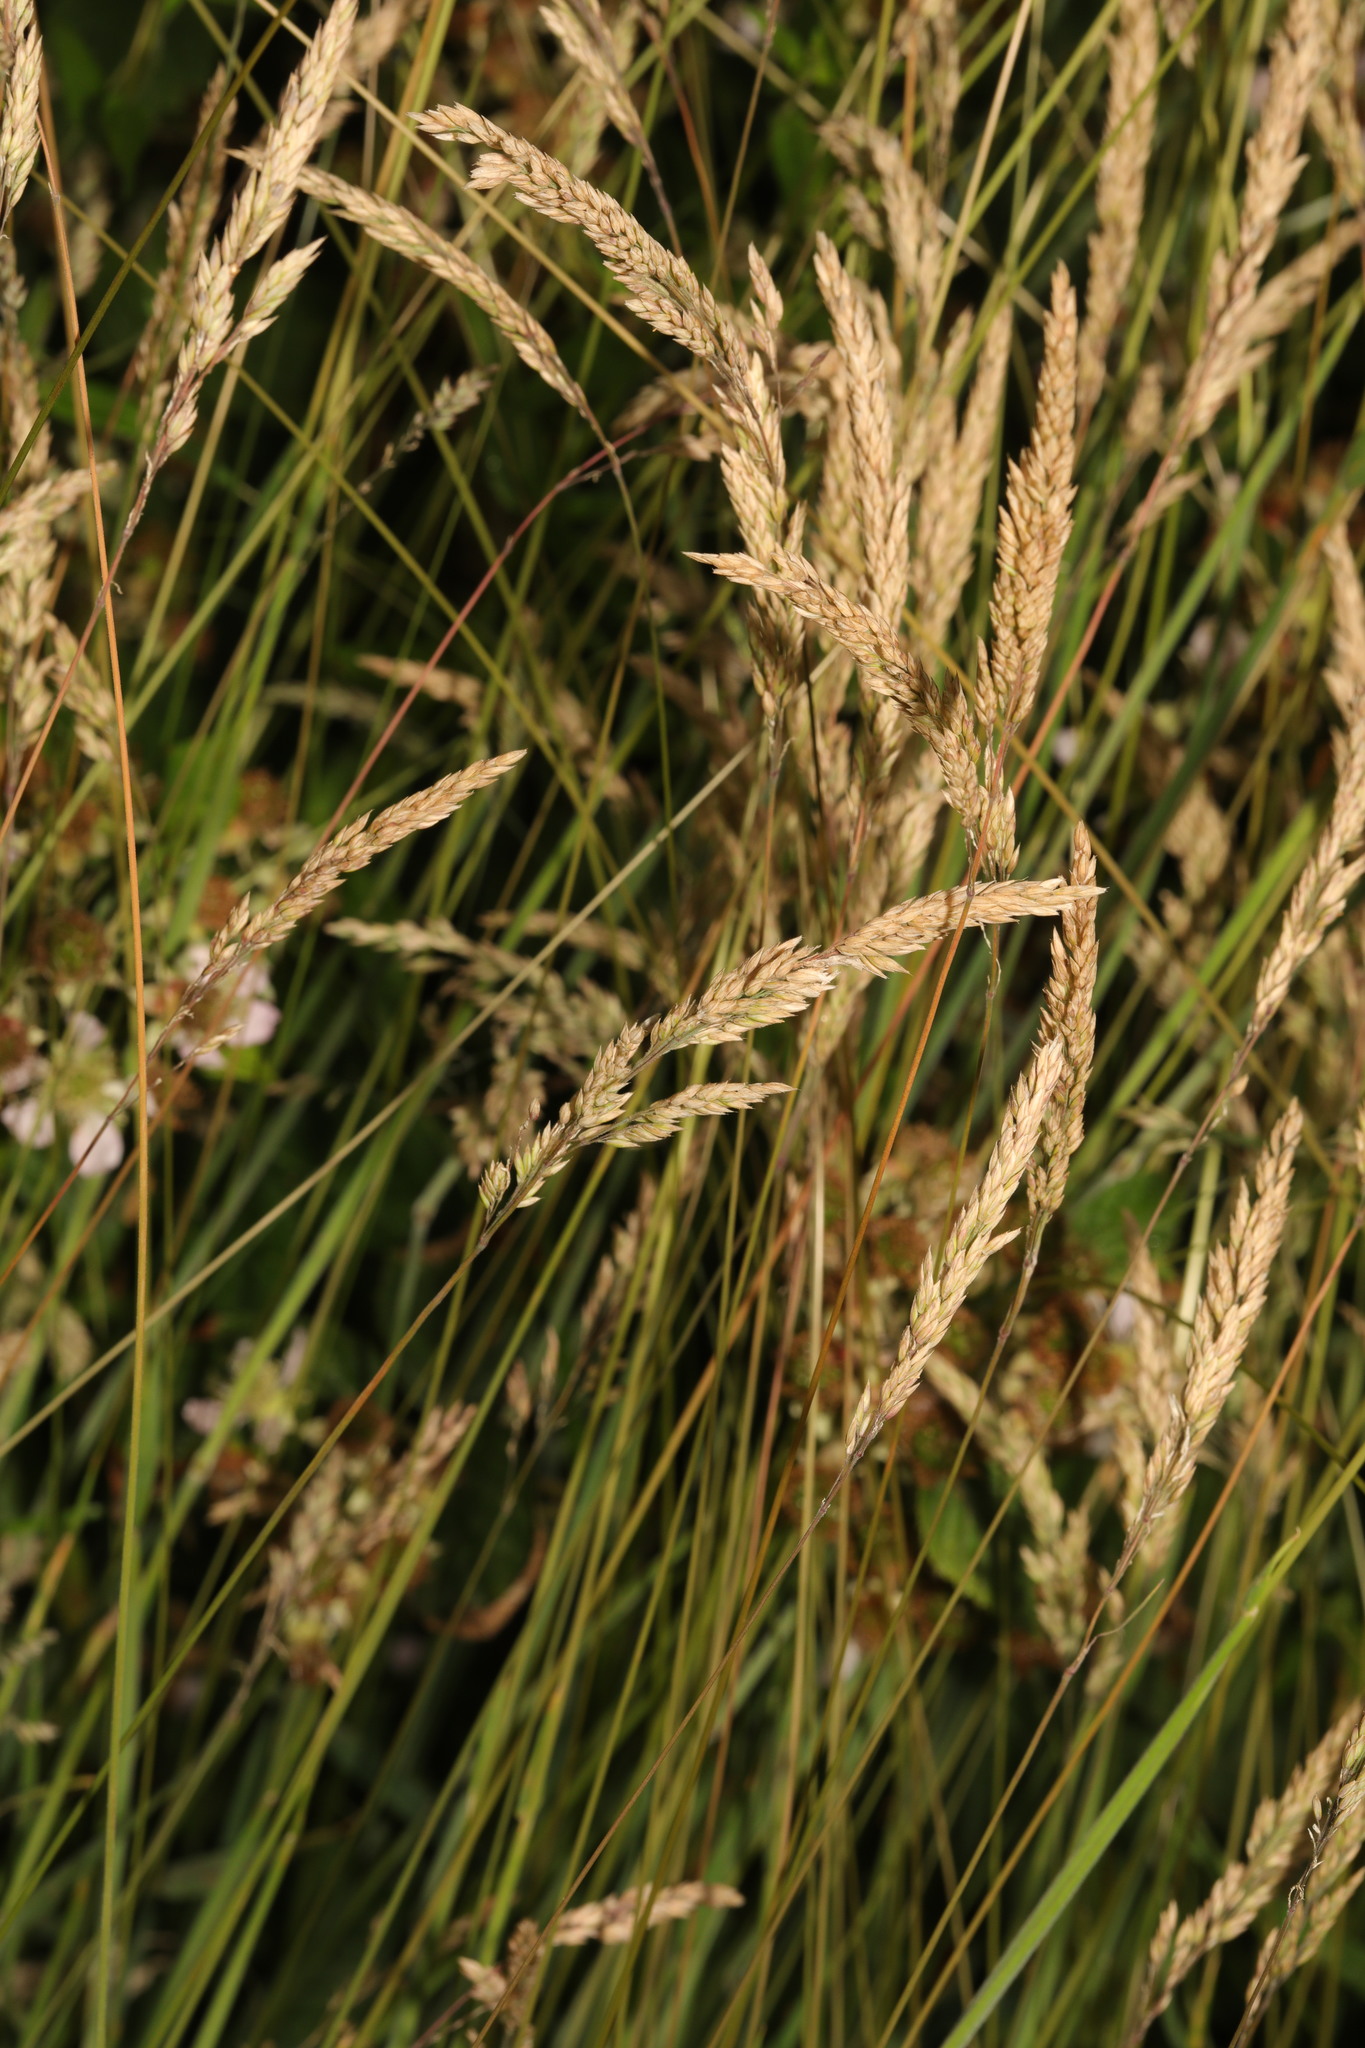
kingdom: Plantae
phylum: Tracheophyta
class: Liliopsida
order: Poales
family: Poaceae
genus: Holcus
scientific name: Holcus lanatus
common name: Yorkshire-fog
